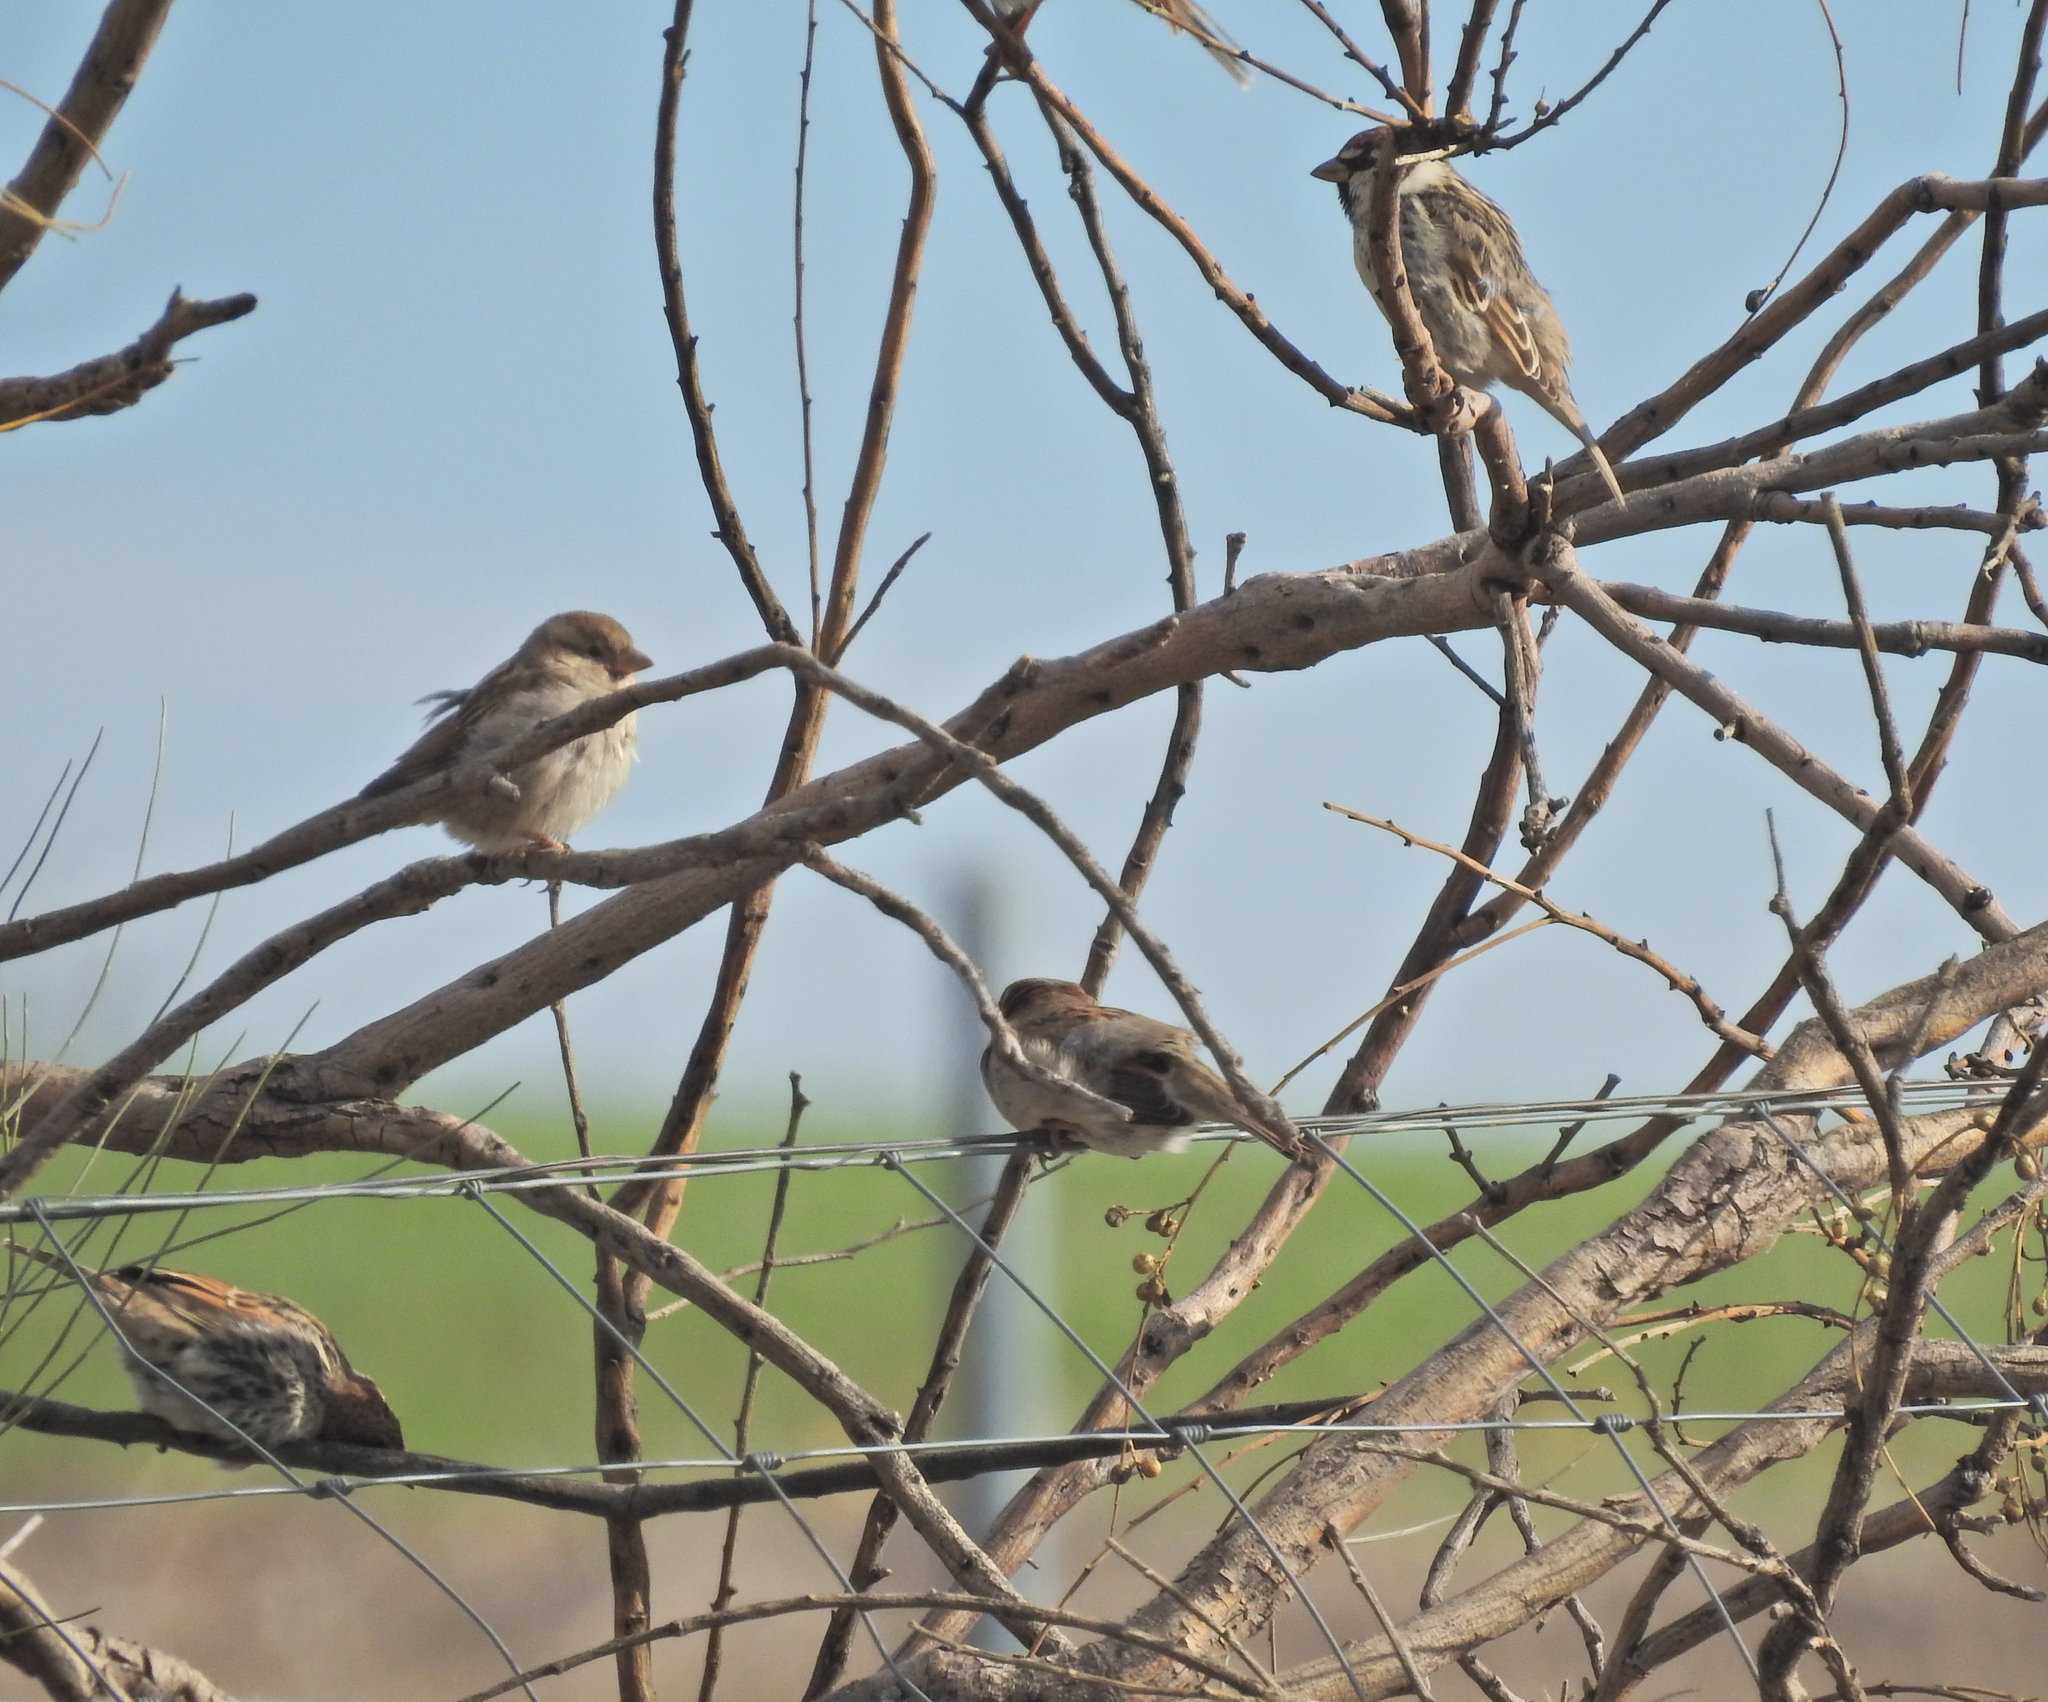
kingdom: Animalia
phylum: Chordata
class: Aves
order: Passeriformes
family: Passeridae
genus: Passer
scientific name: Passer hispaniolensis
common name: Spanish sparrow
